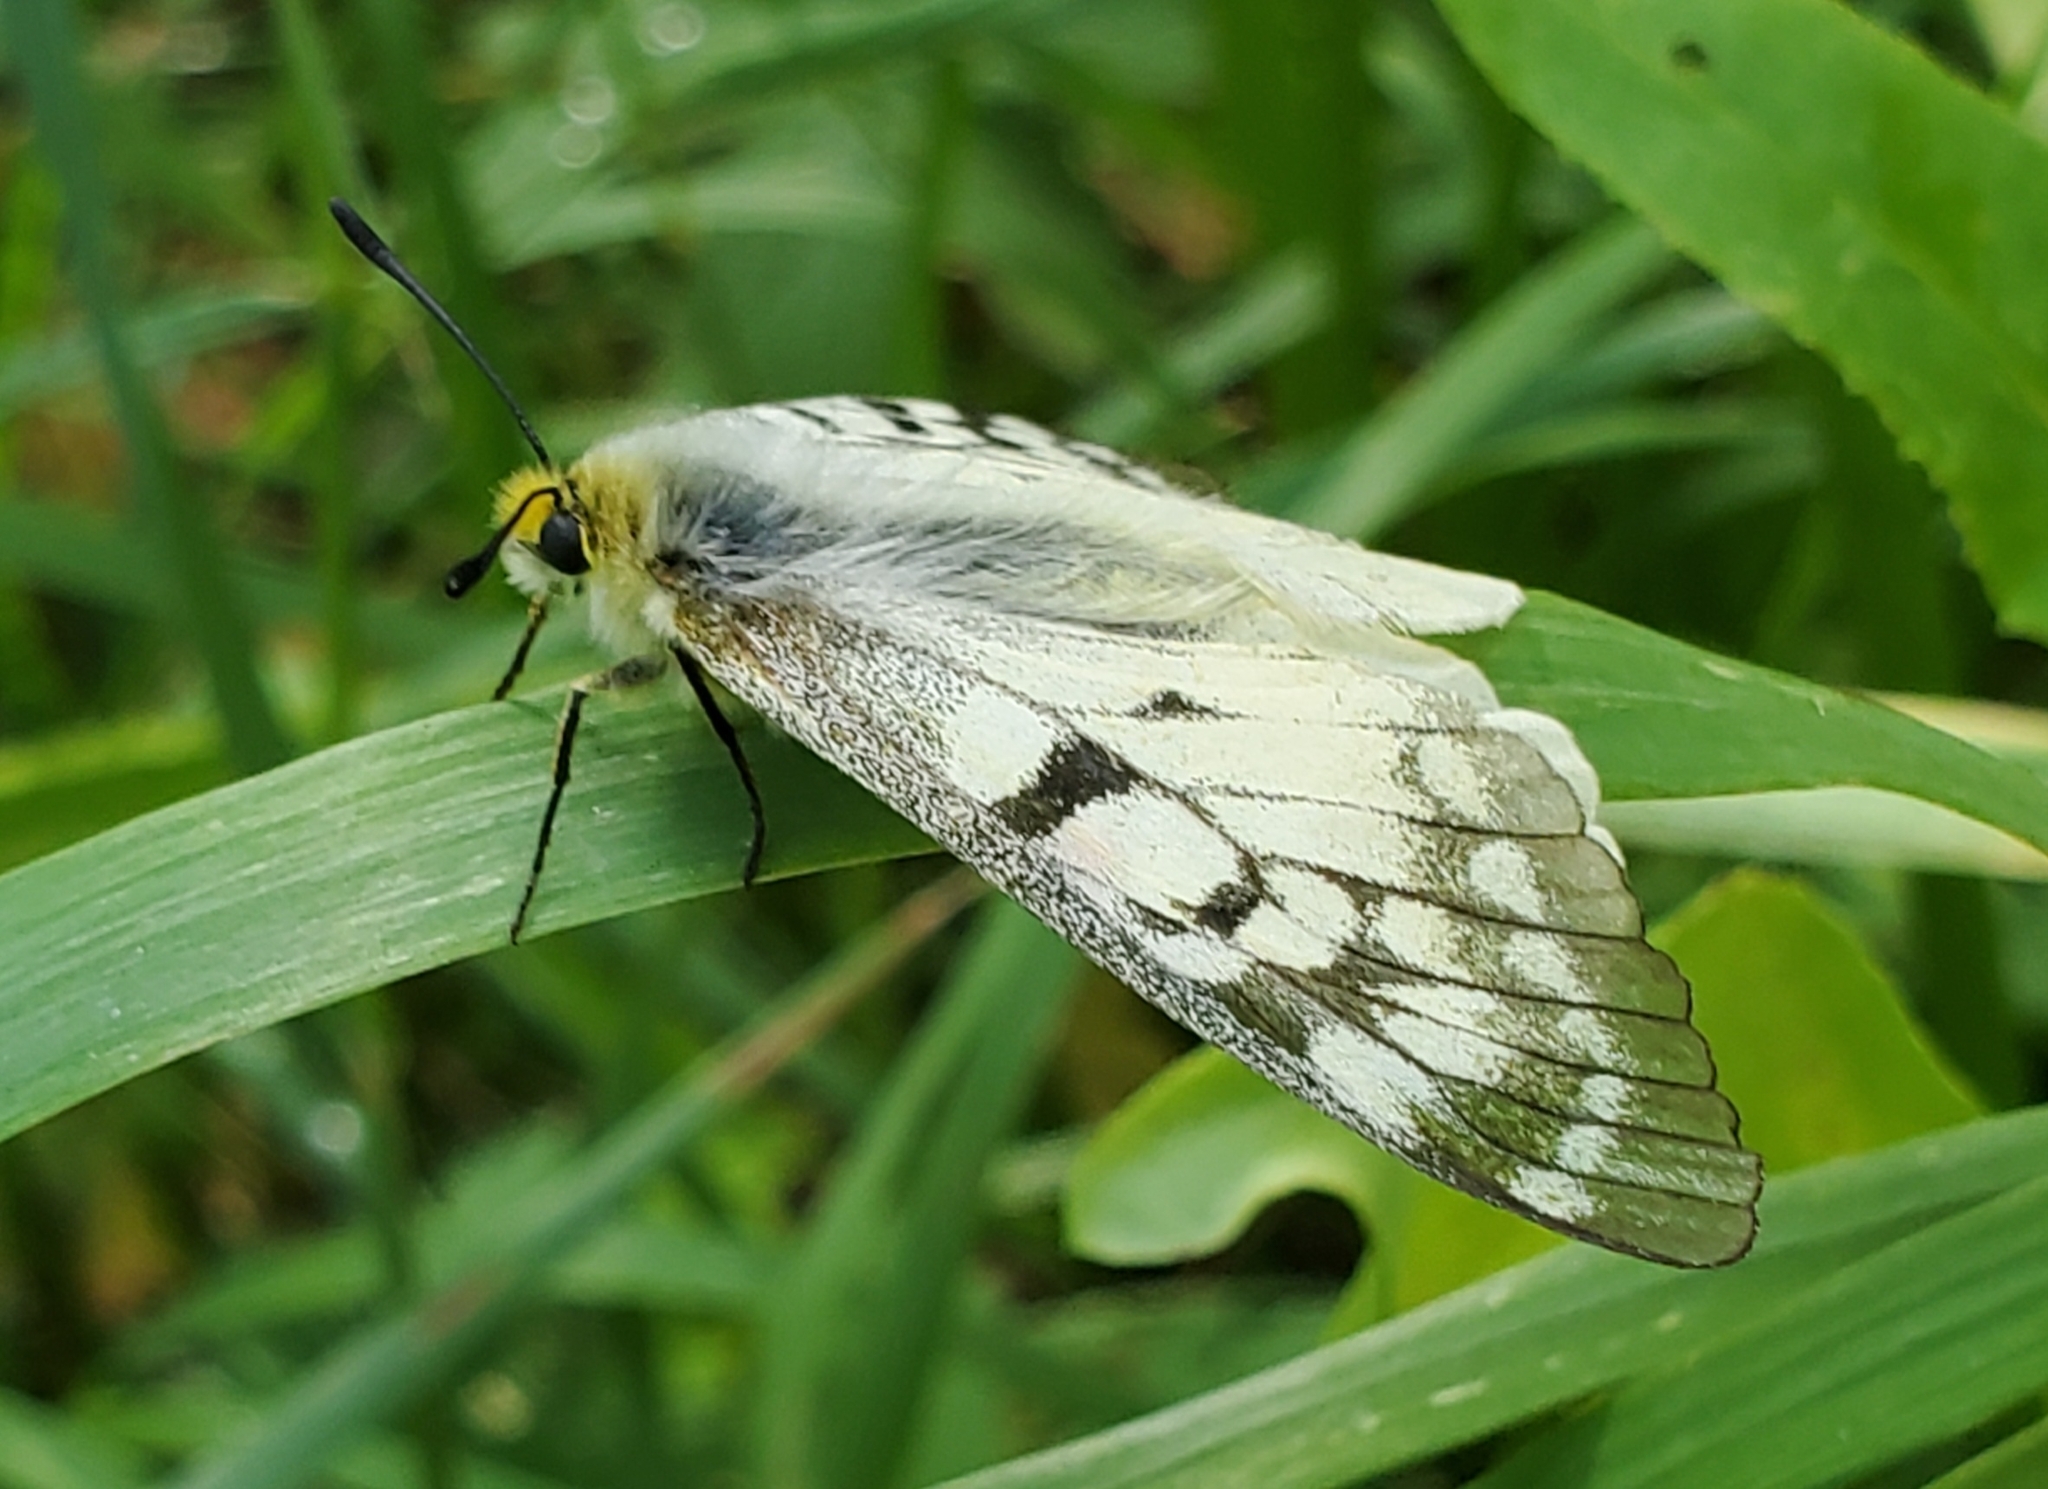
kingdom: Animalia
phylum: Arthropoda
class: Insecta
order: Lepidoptera
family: Papilionidae
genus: Parnassius
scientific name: Parnassius clodius
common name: American apollo
